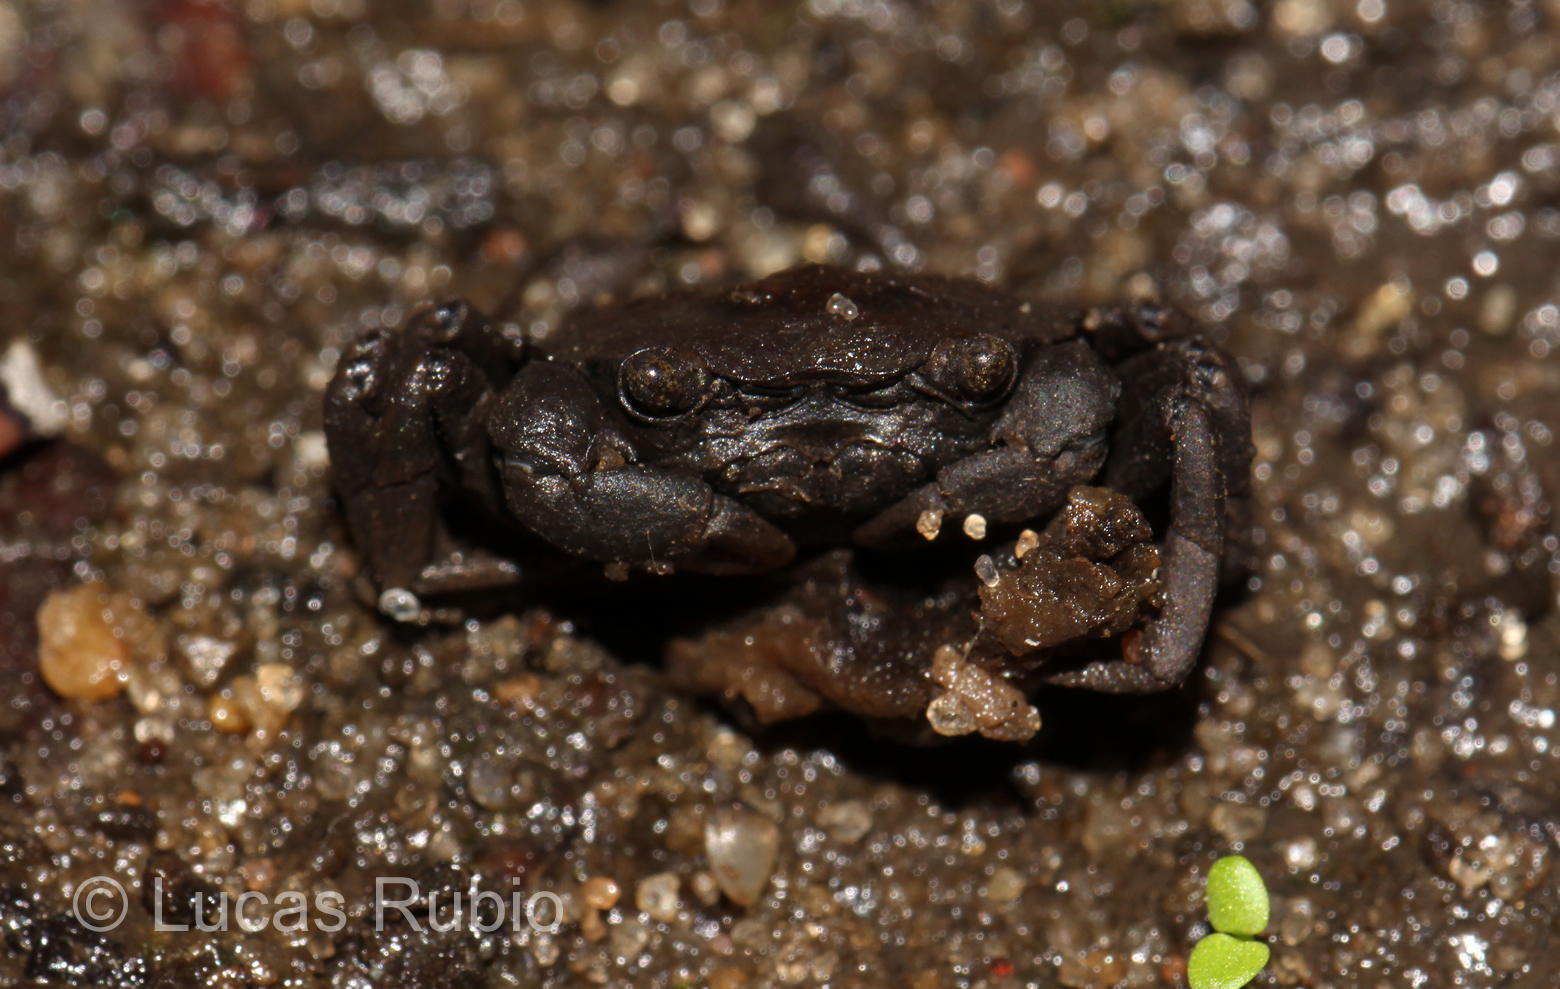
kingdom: Animalia
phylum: Arthropoda
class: Malacostraca
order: Decapoda
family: Trichodactylidae
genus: Trichodactylus
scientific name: Trichodactylus borellianus
